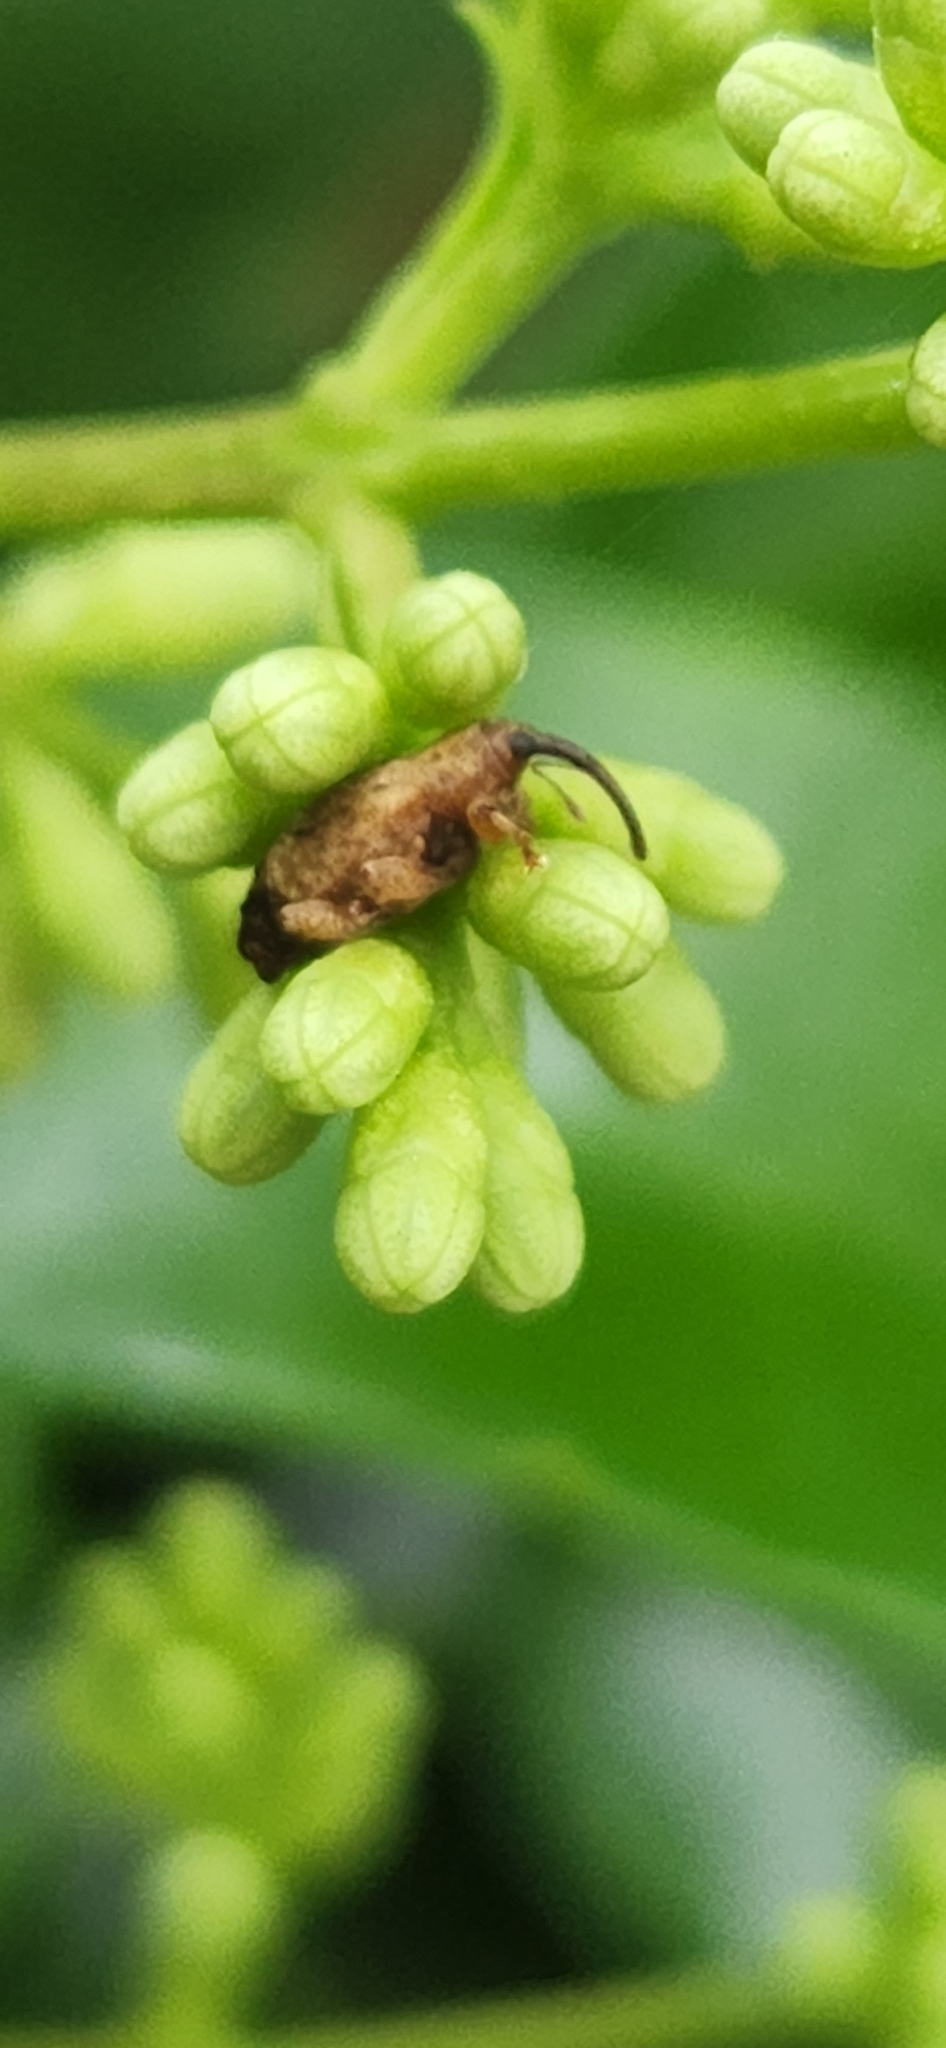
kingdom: Animalia
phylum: Arthropoda
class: Insecta
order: Coleoptera
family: Curculionidae
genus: Ochyromera
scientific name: Ochyromera ligustri
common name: Weevil
